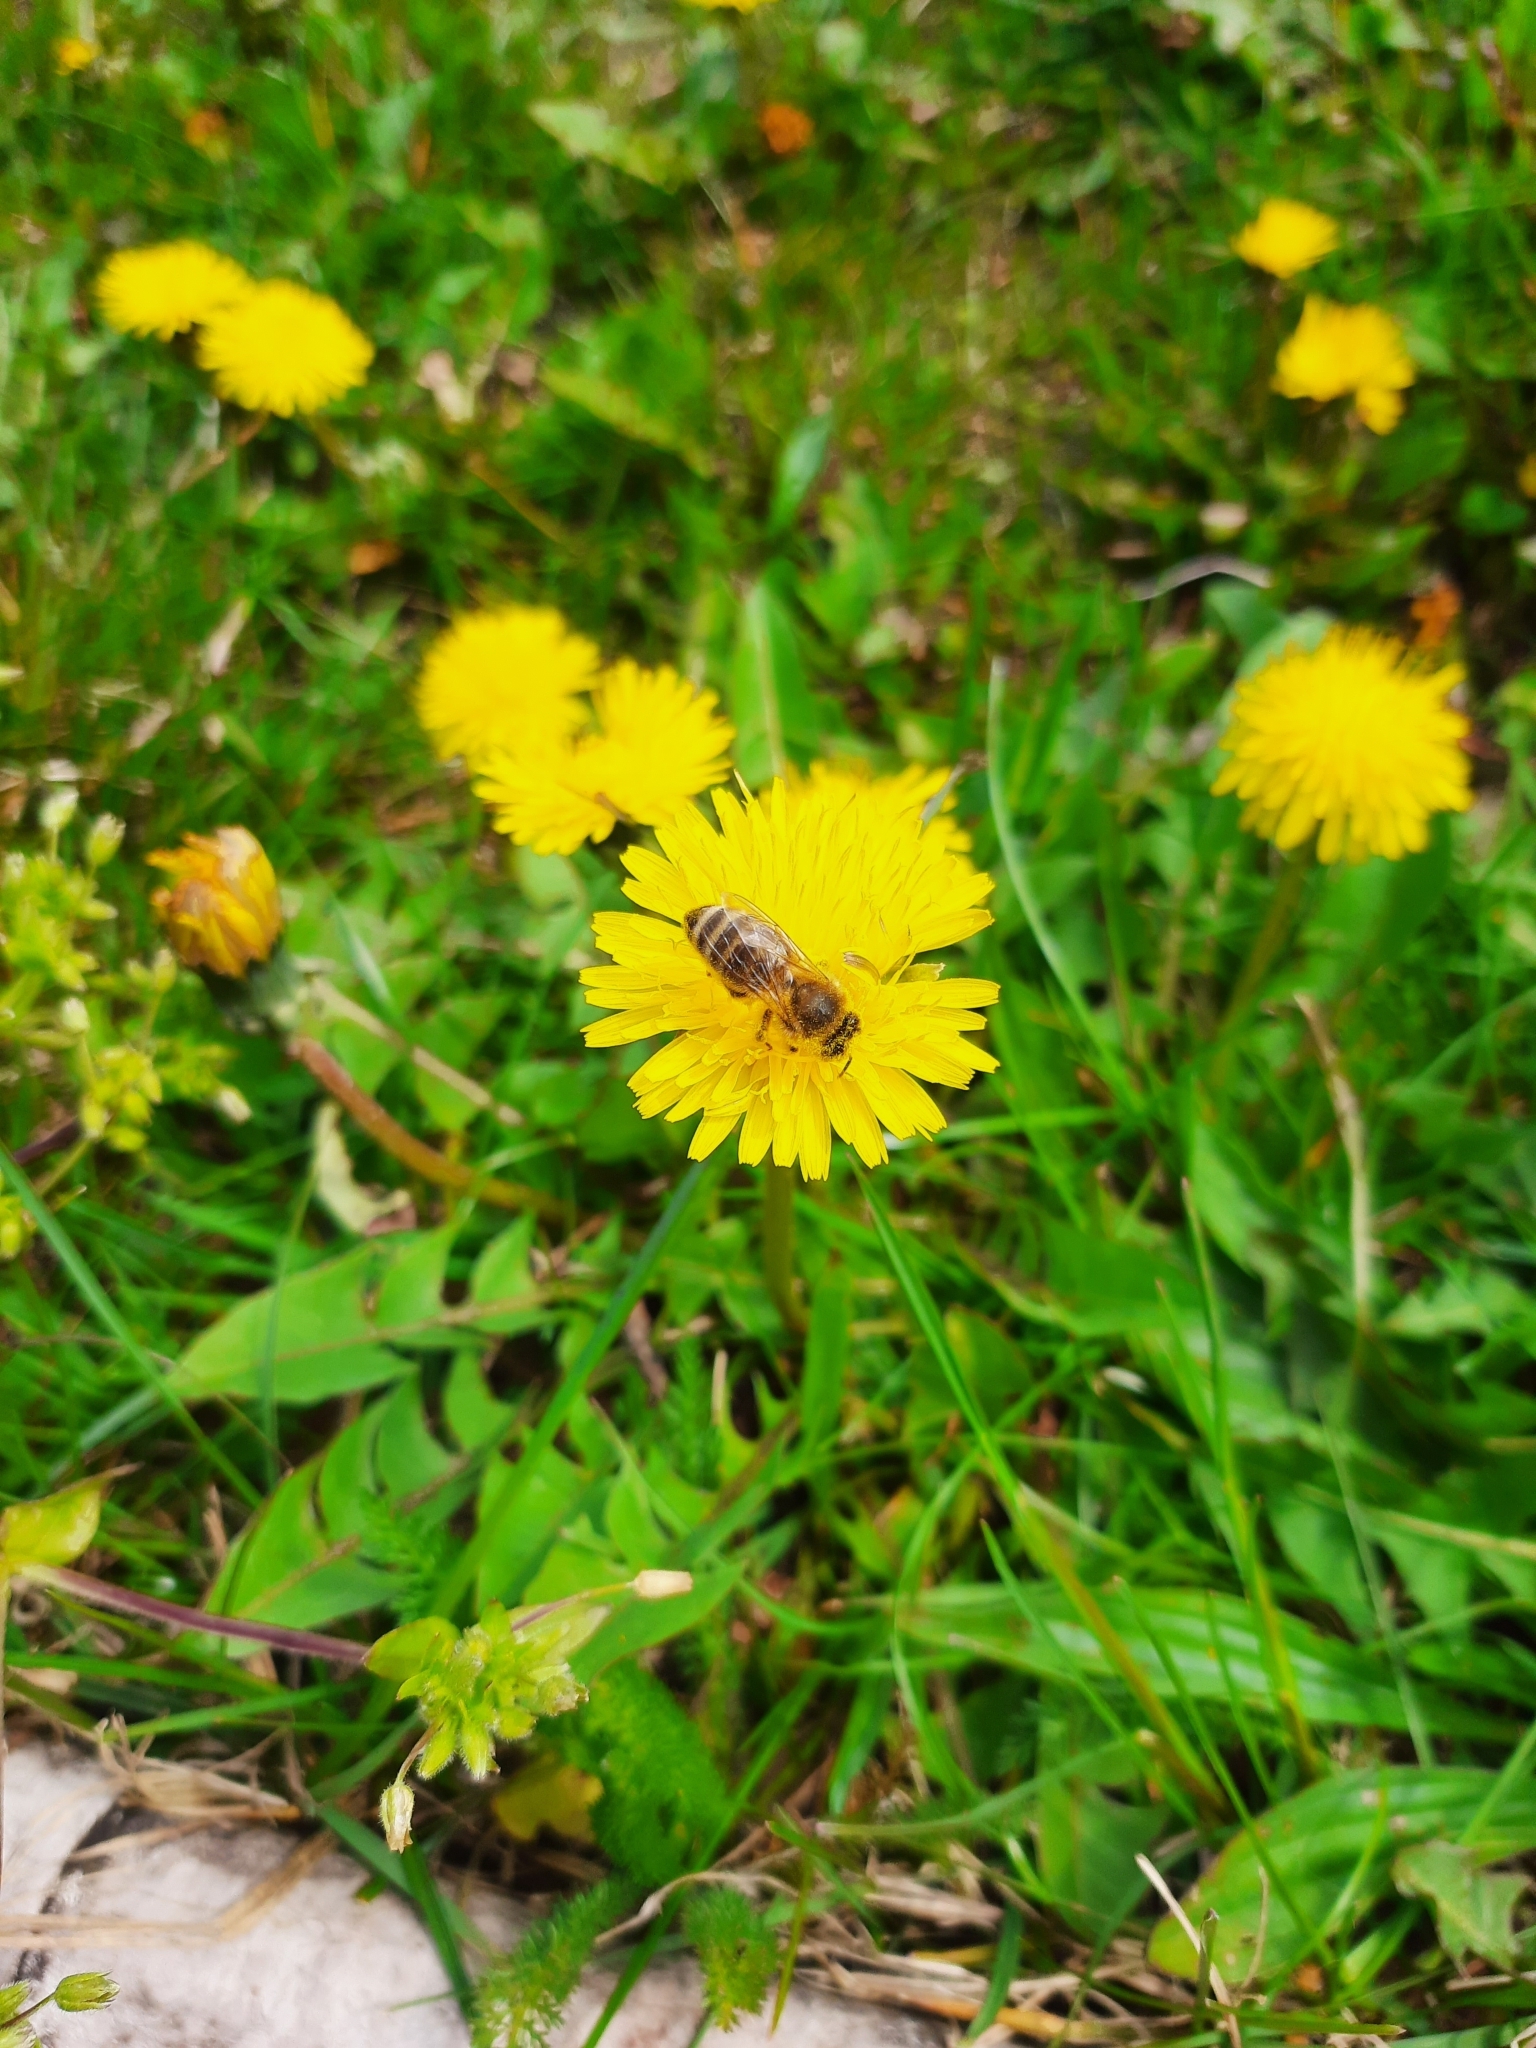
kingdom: Animalia
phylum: Arthropoda
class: Insecta
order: Hymenoptera
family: Apidae
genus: Apis
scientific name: Apis mellifera
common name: Honey bee
